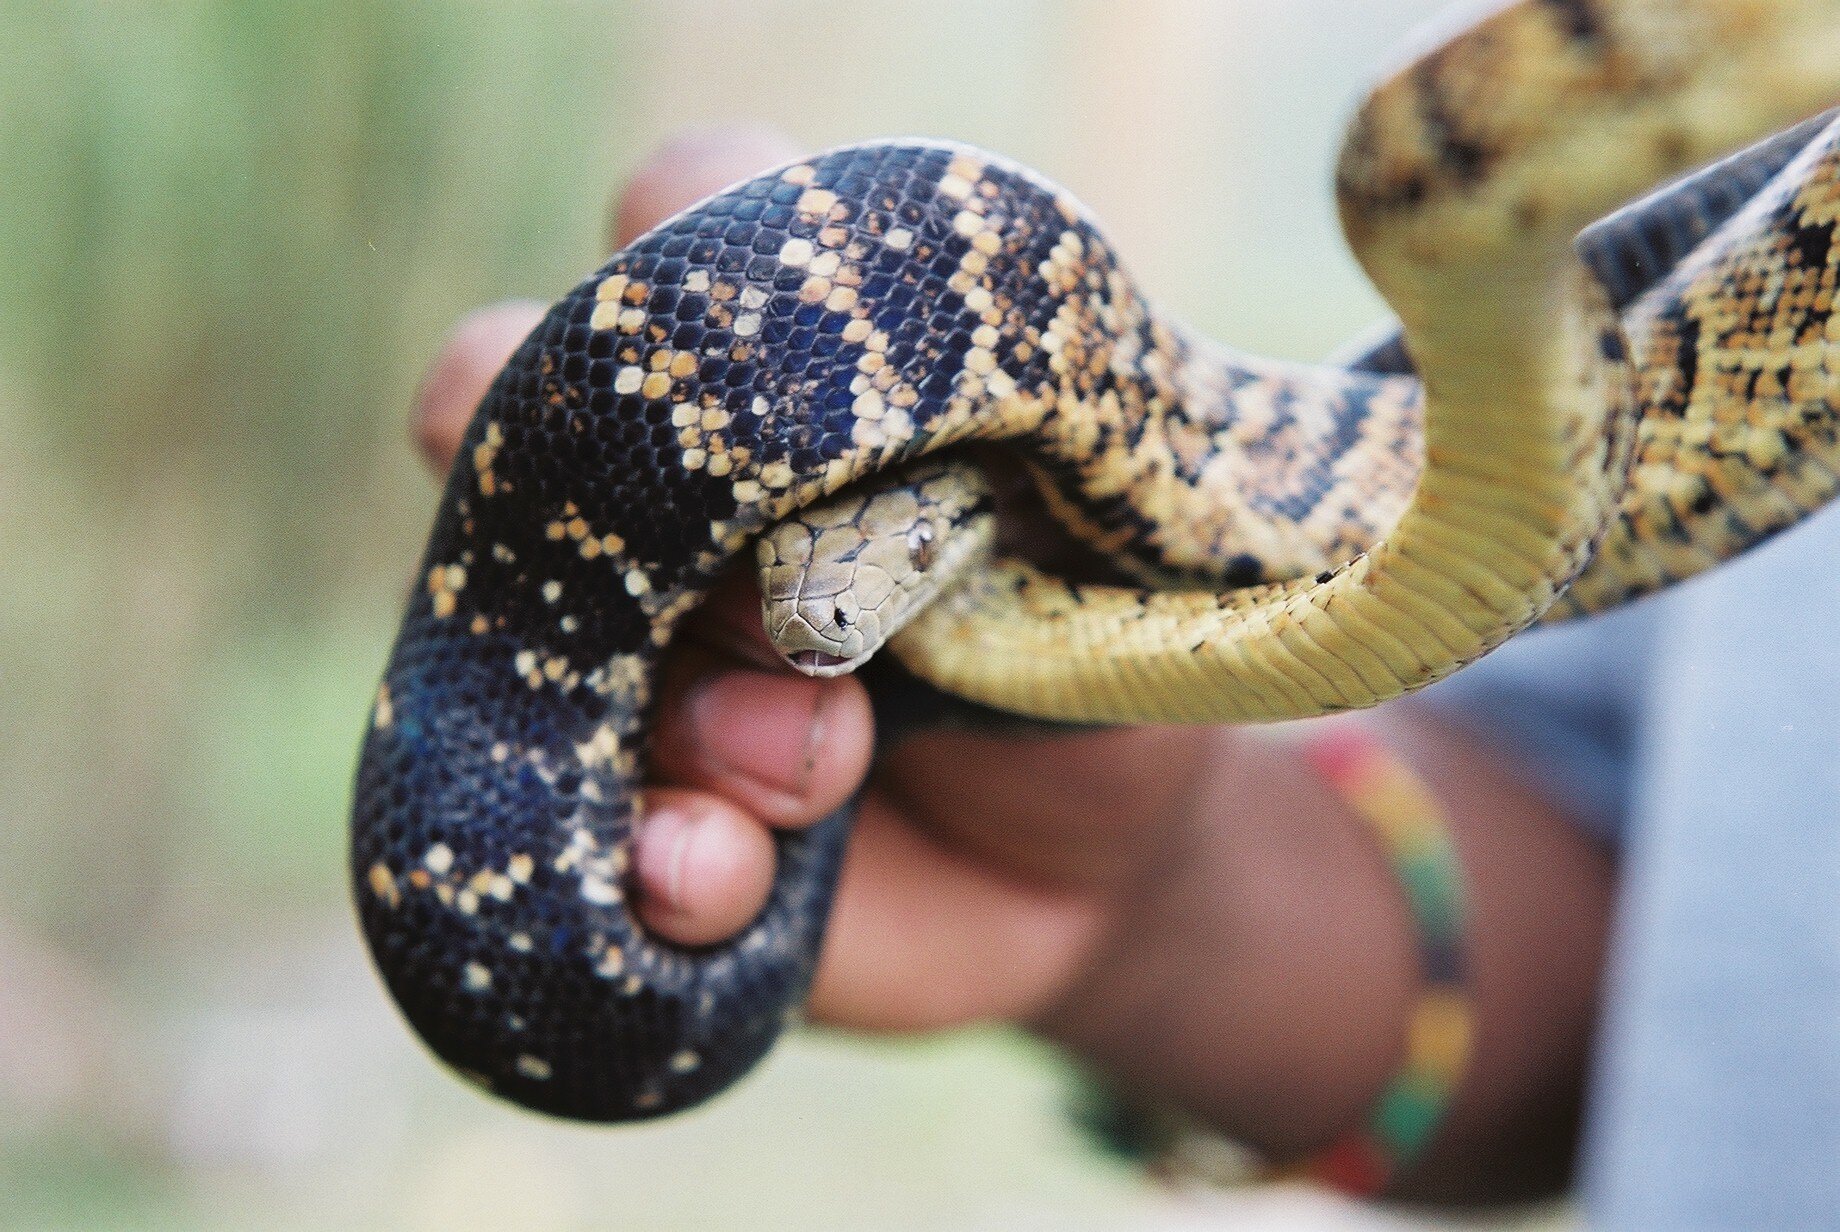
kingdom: Animalia
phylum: Chordata
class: Squamata
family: Boidae
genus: Chilabothrus
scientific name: Chilabothrus subflavus
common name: Jamaican boa
